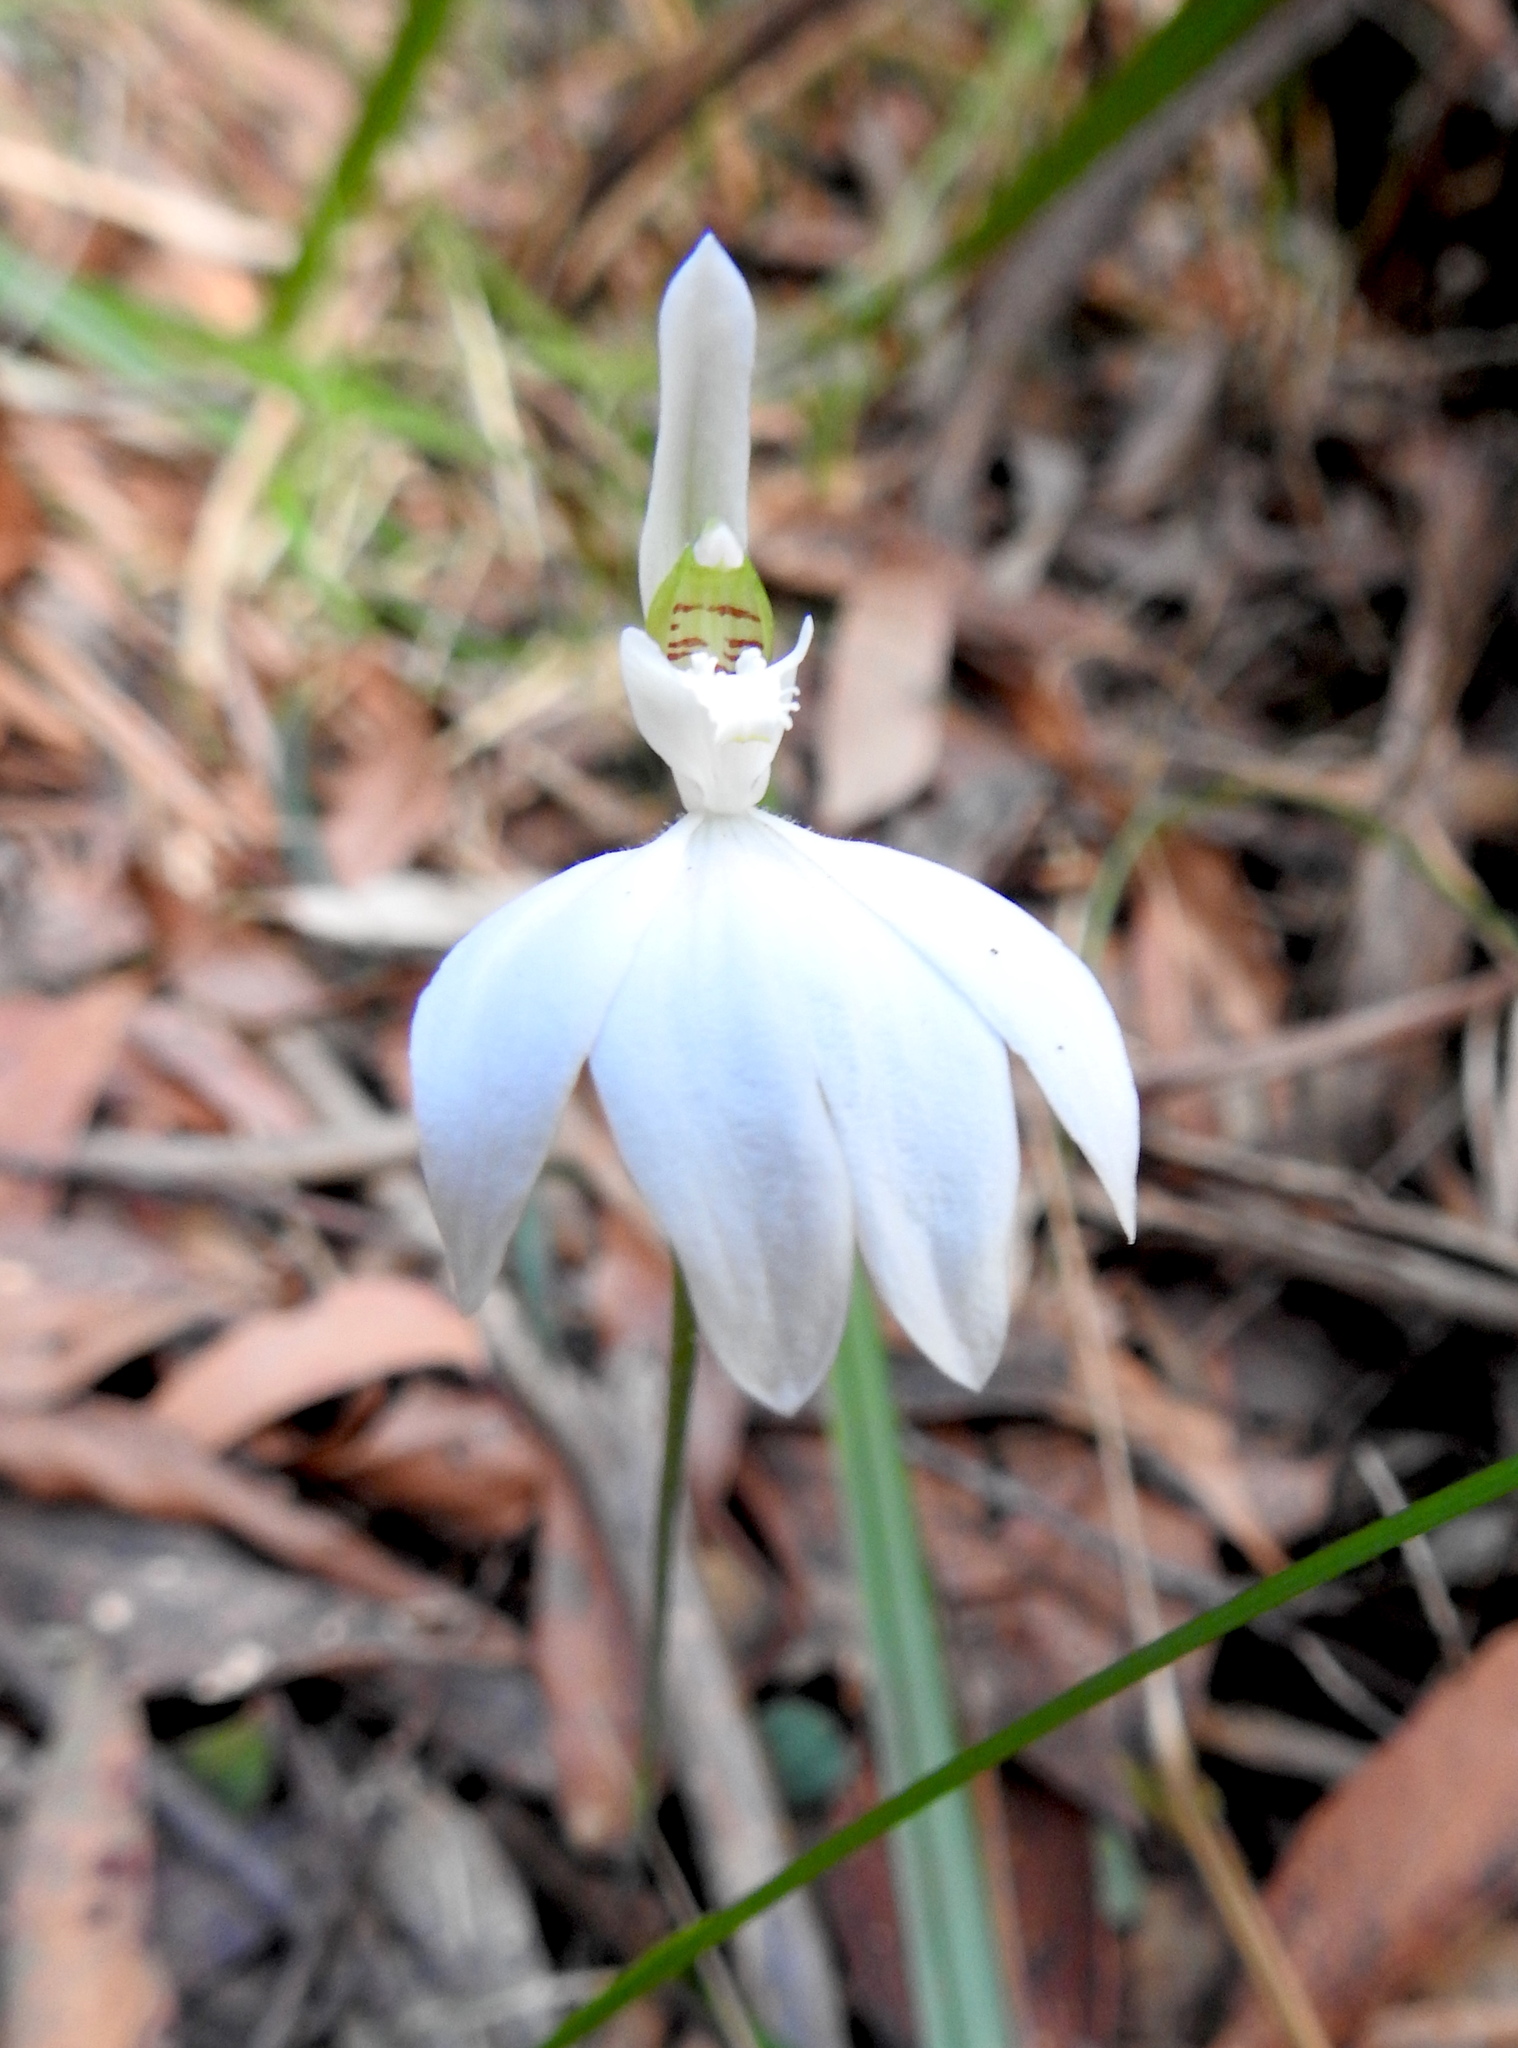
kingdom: Plantae
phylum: Tracheophyta
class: Liliopsida
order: Asparagales
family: Orchidaceae
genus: Caladenia
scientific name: Caladenia catenata
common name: White caladenia
